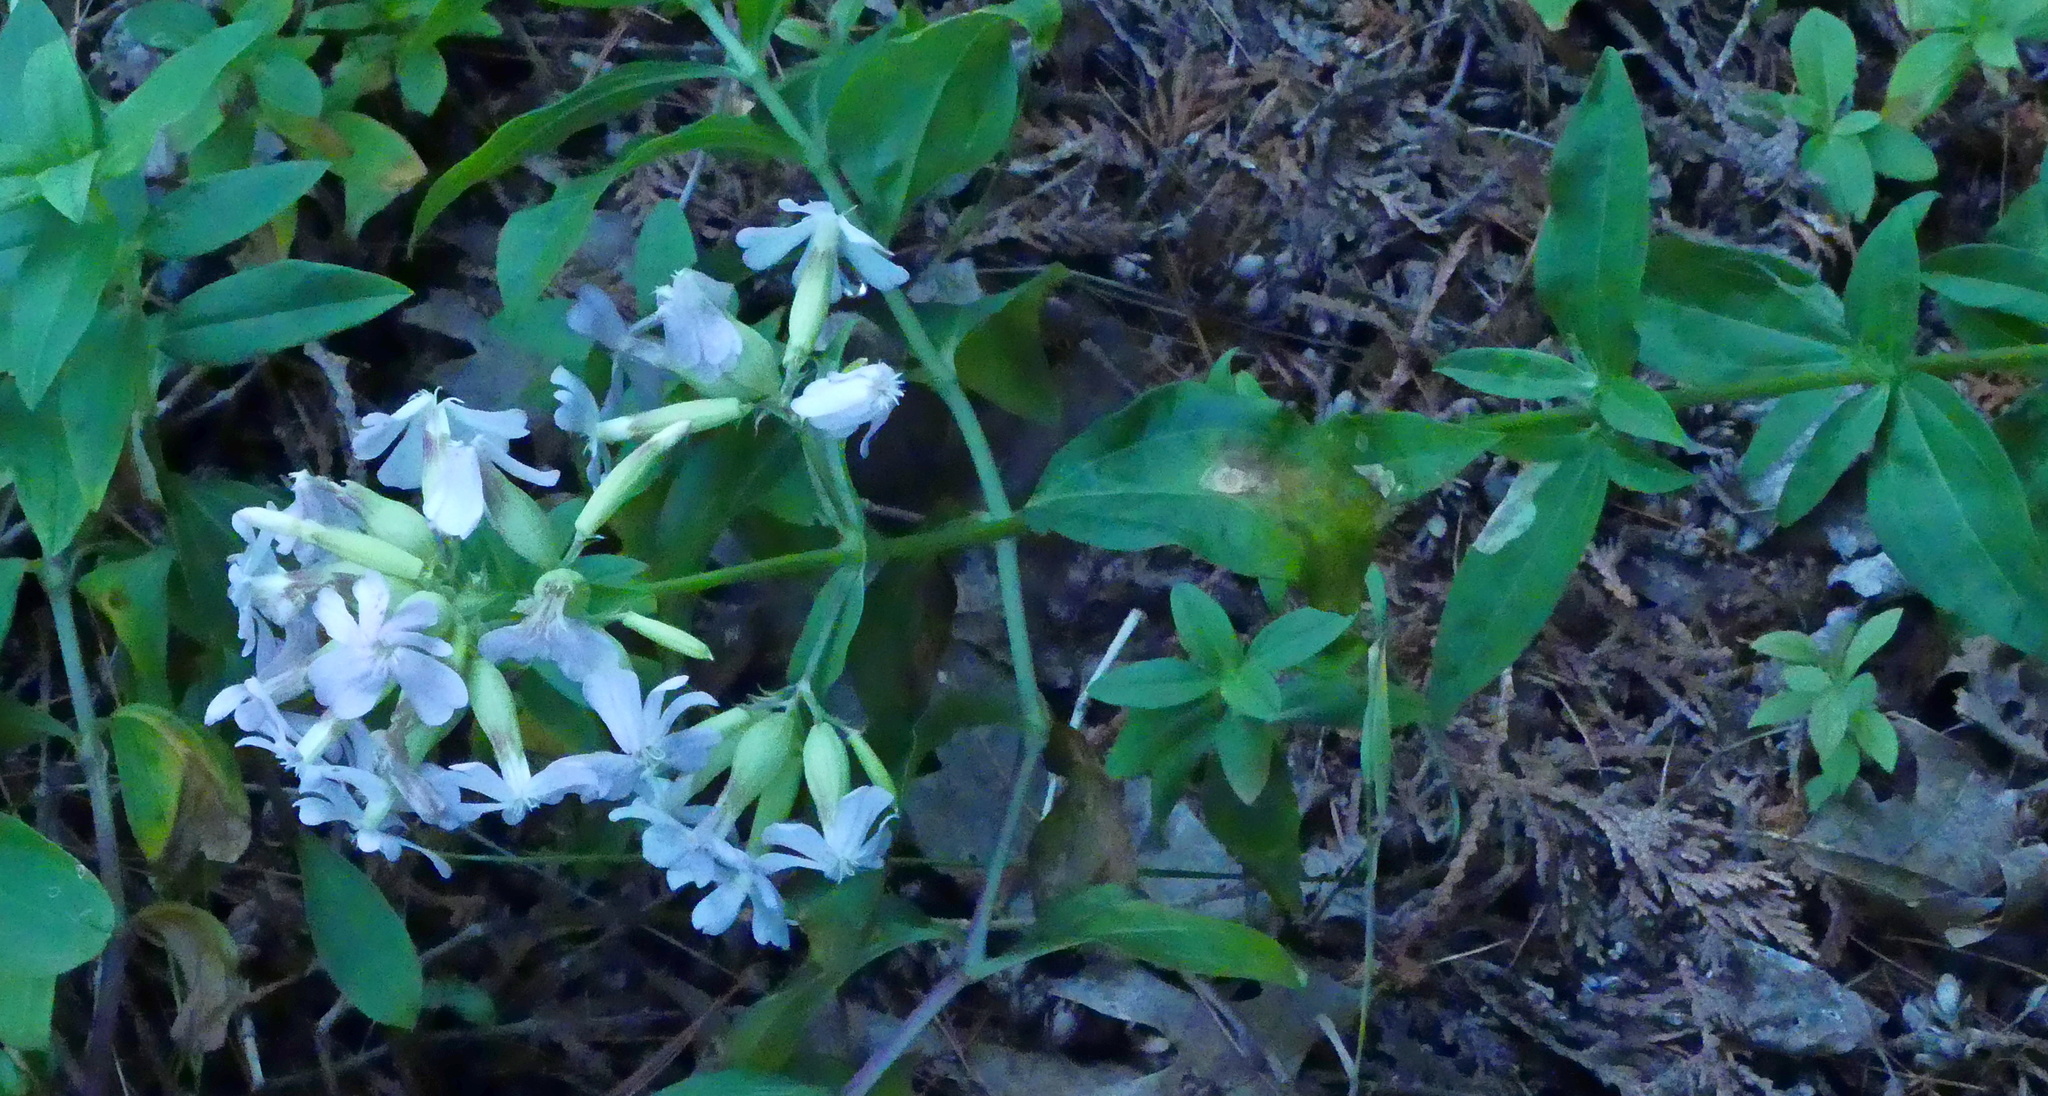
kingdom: Plantae
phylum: Tracheophyta
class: Magnoliopsida
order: Caryophyllales
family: Caryophyllaceae
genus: Saponaria
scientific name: Saponaria officinalis
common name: Soapwort
